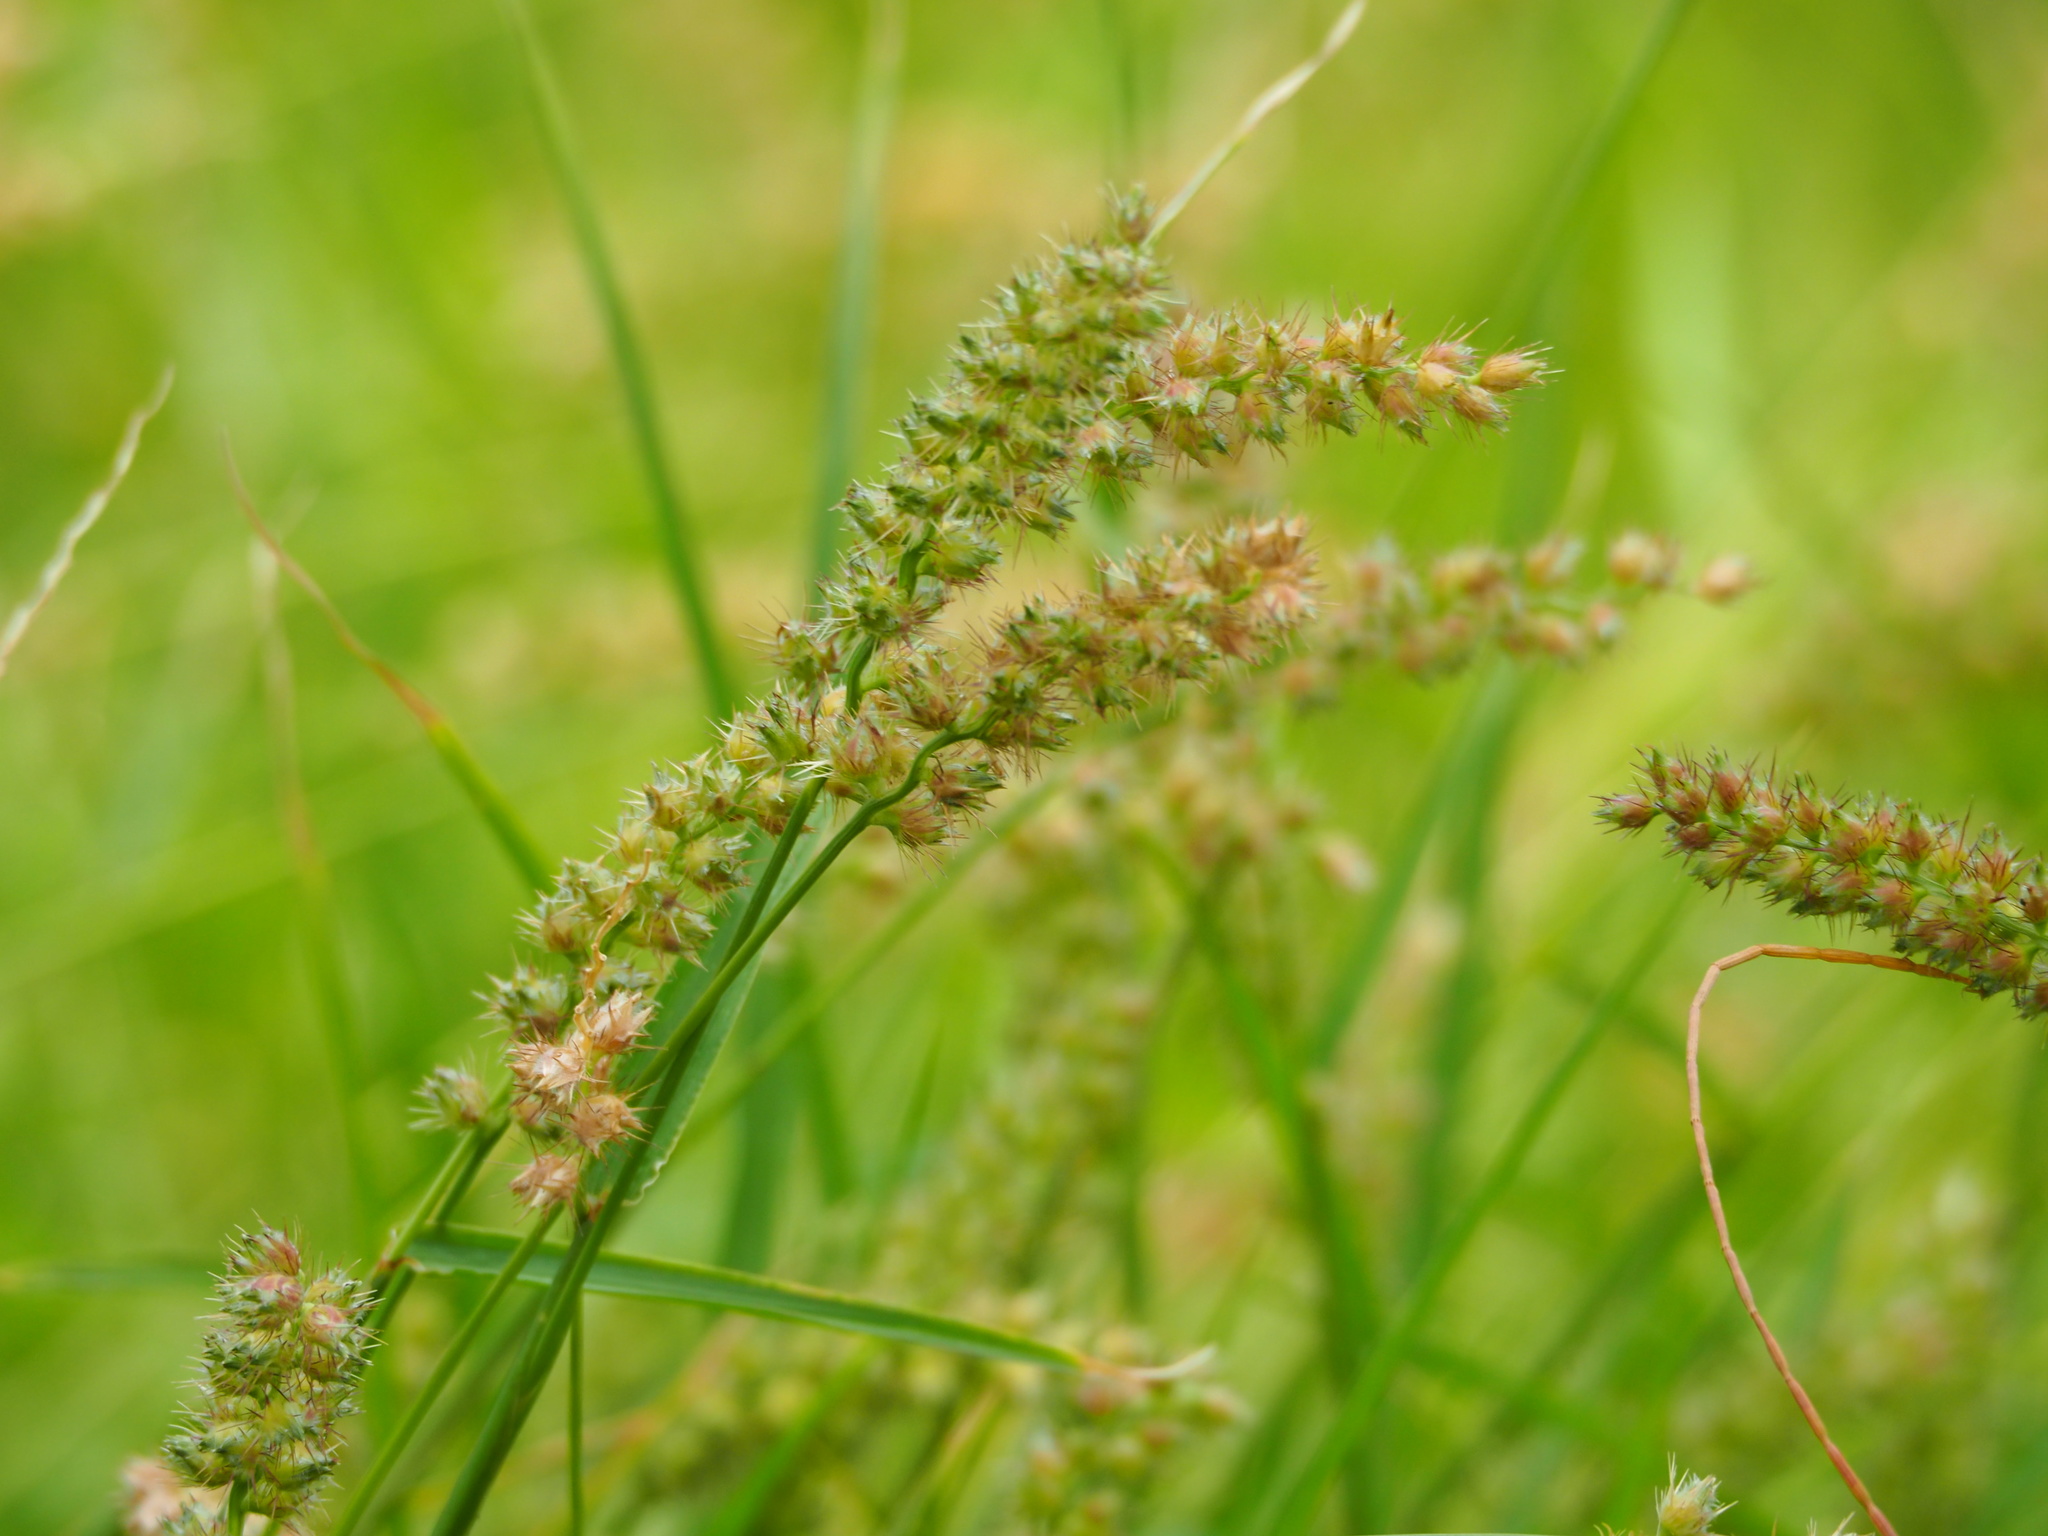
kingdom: Plantae
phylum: Tracheophyta
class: Liliopsida
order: Poales
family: Poaceae
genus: Cenchrus
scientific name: Cenchrus echinatus
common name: Southern sandbur
